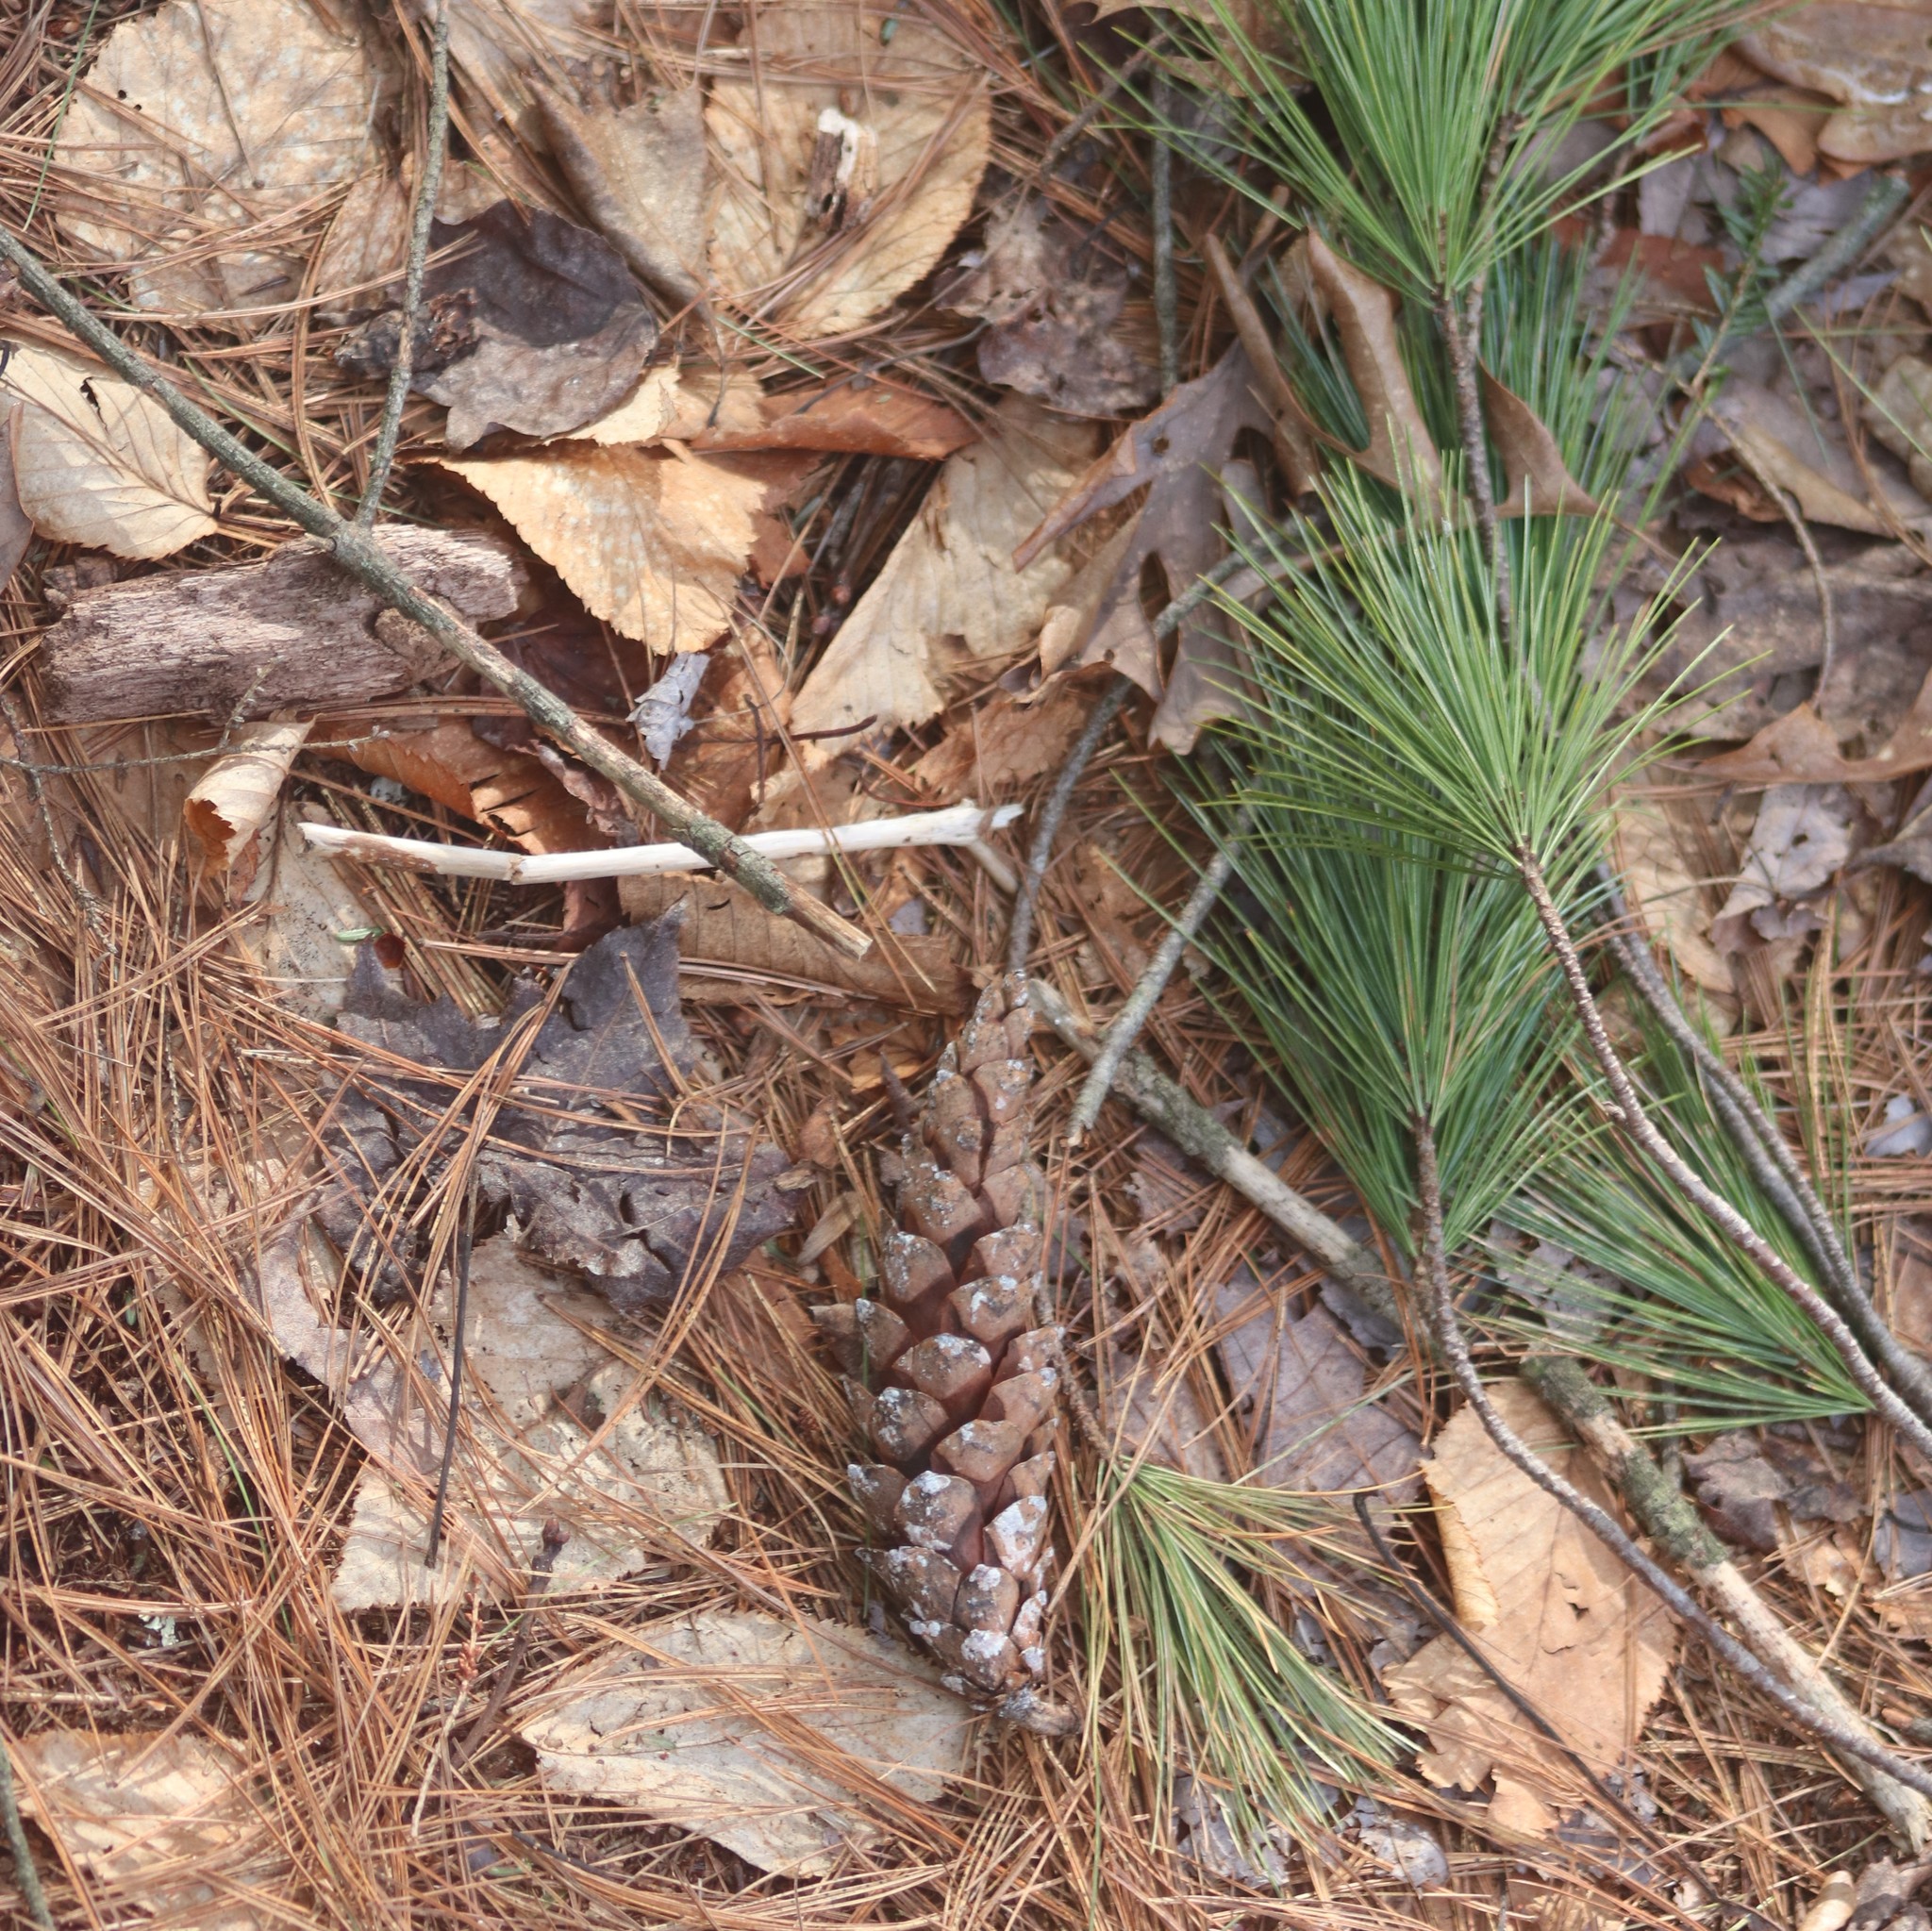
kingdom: Plantae
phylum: Tracheophyta
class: Pinopsida
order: Pinales
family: Pinaceae
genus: Pinus
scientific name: Pinus strobus
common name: Weymouth pine
